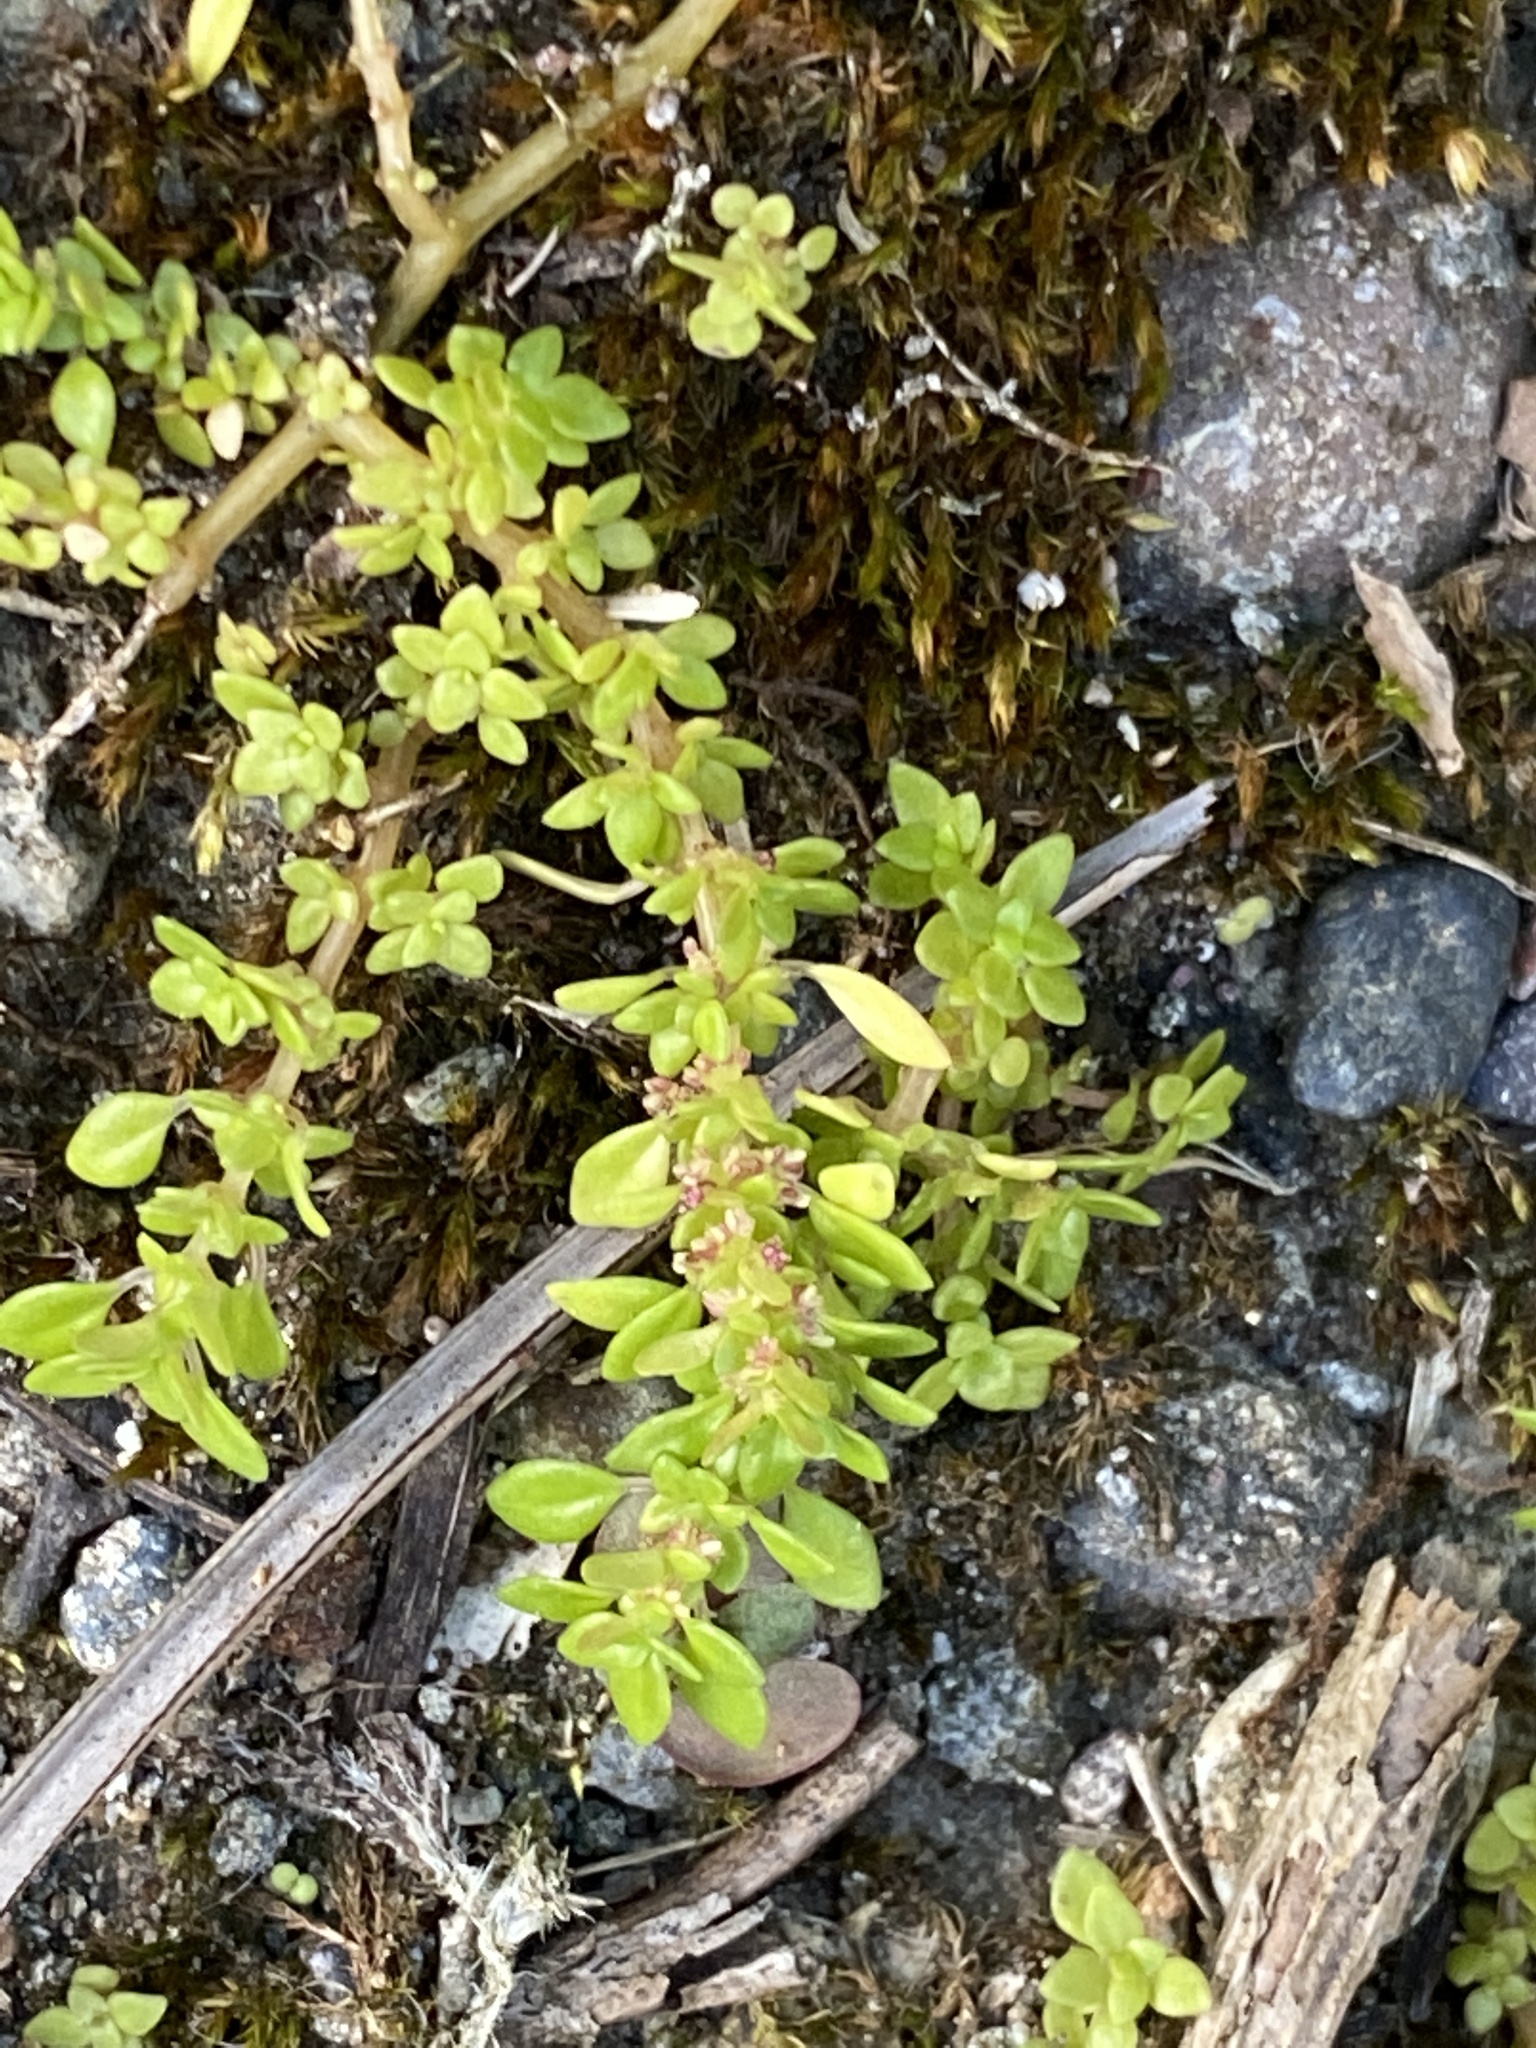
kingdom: Plantae
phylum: Tracheophyta
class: Magnoliopsida
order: Rosales
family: Urticaceae
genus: Pilea
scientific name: Pilea microphylla
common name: Artillery-plant
